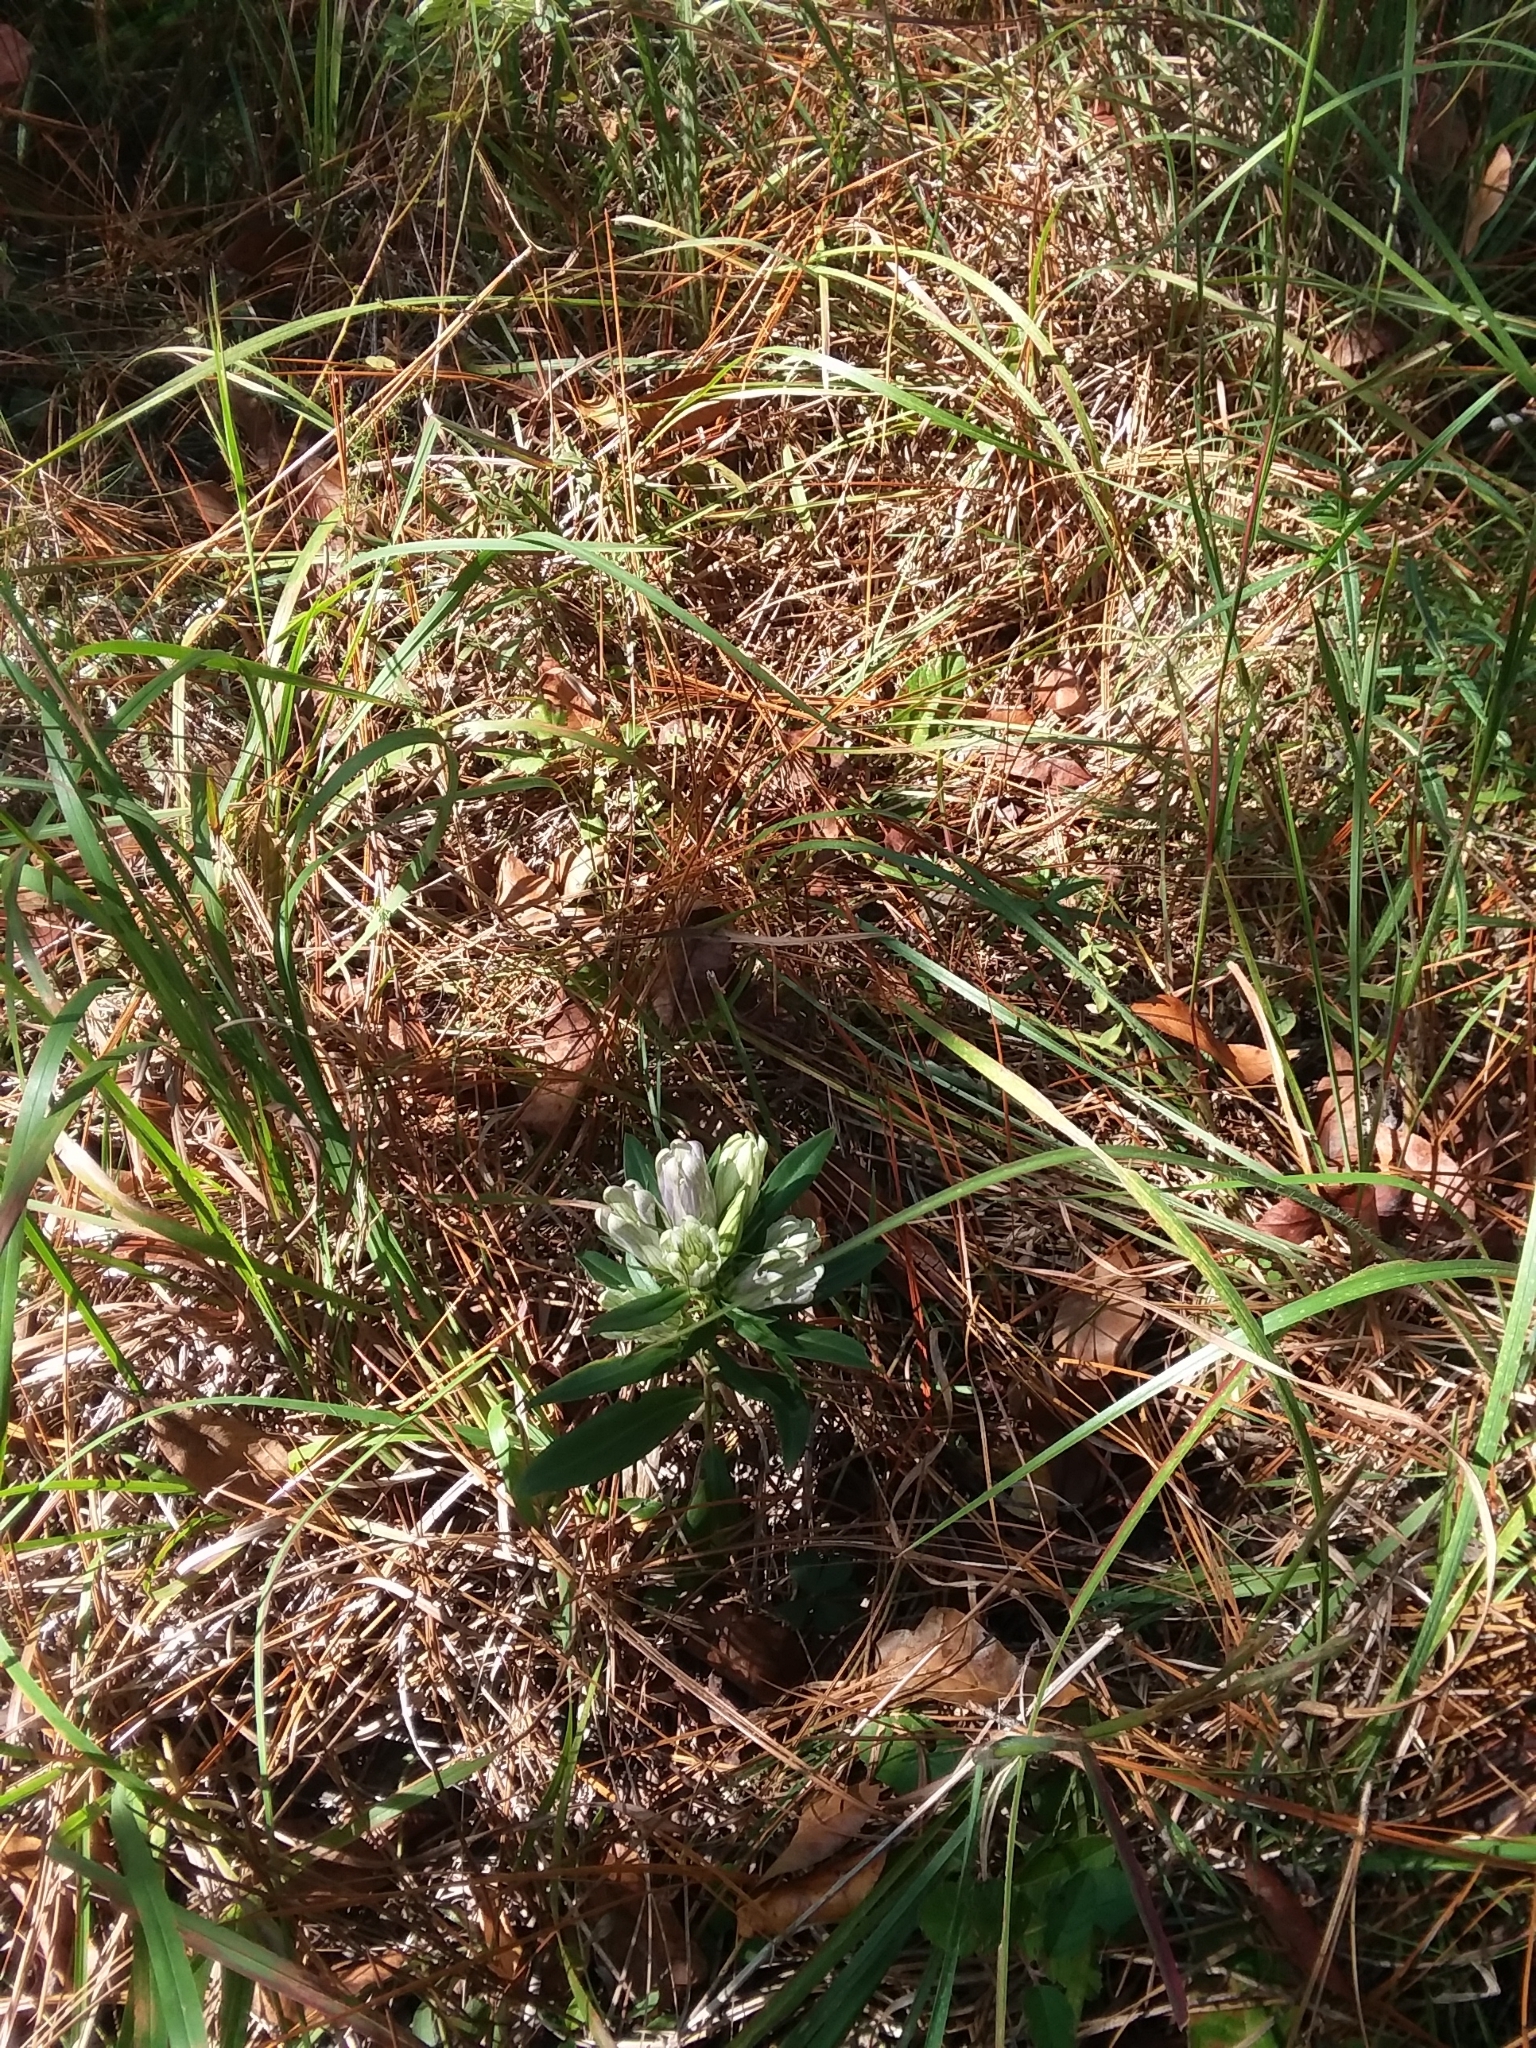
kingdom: Plantae
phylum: Tracheophyta
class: Magnoliopsida
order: Gentianales
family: Gentianaceae
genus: Gentiana
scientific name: Gentiana villosa
